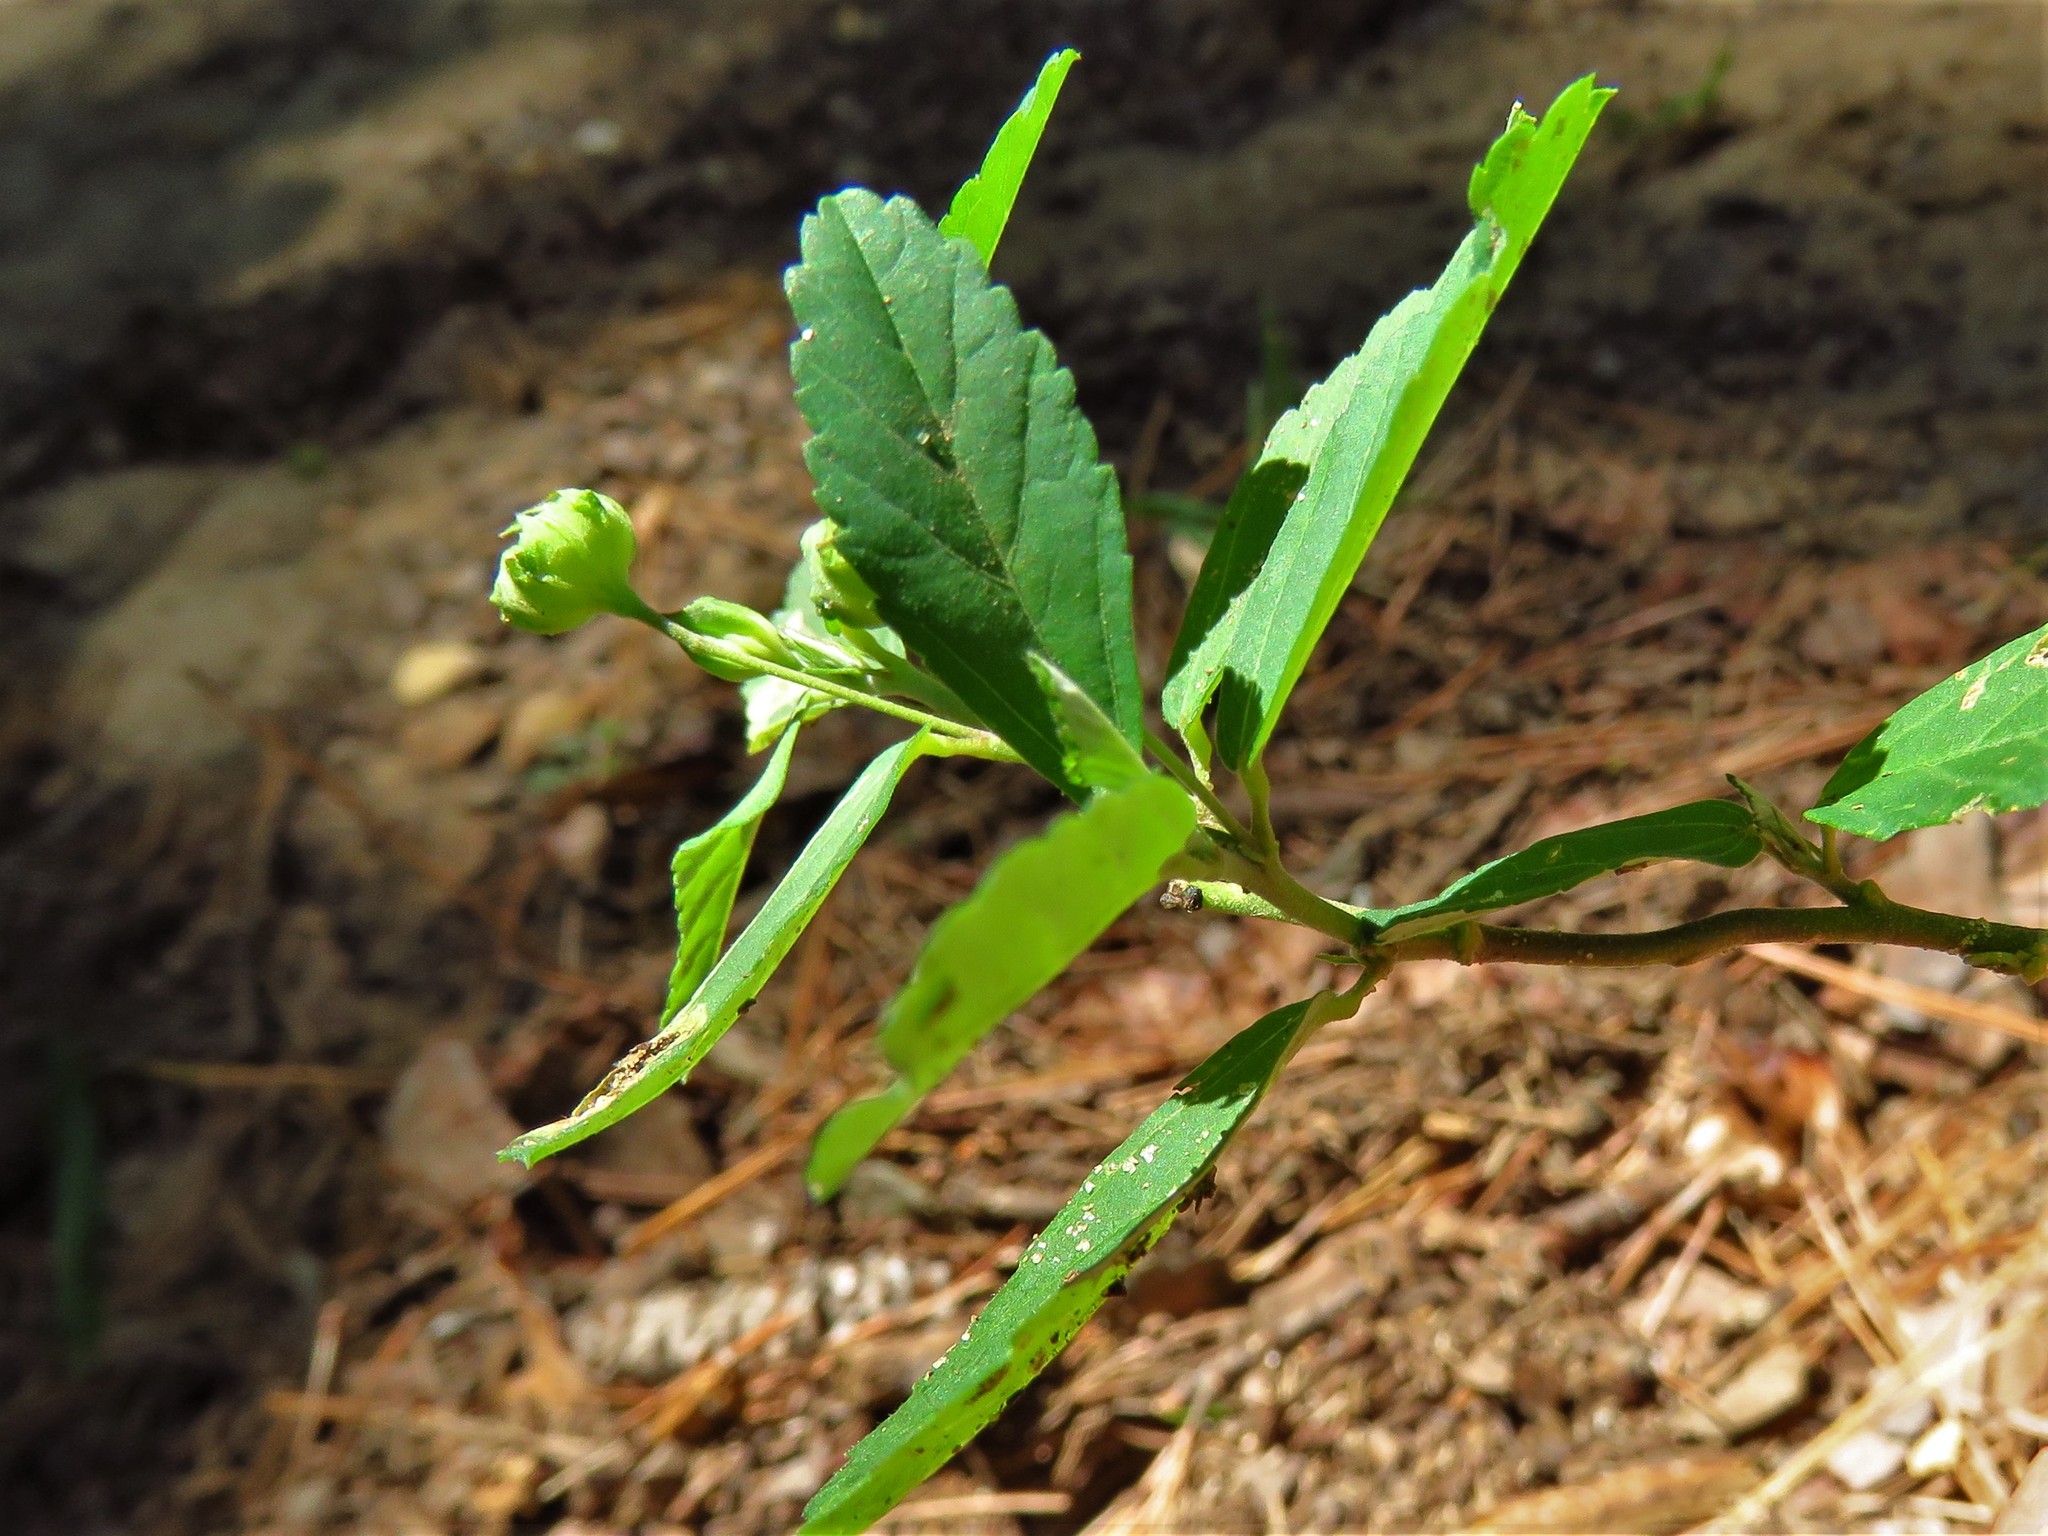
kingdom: Plantae
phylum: Tracheophyta
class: Magnoliopsida
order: Malvales
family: Malvaceae
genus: Sida
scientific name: Sida rhombifolia
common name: Queensland-hemp
